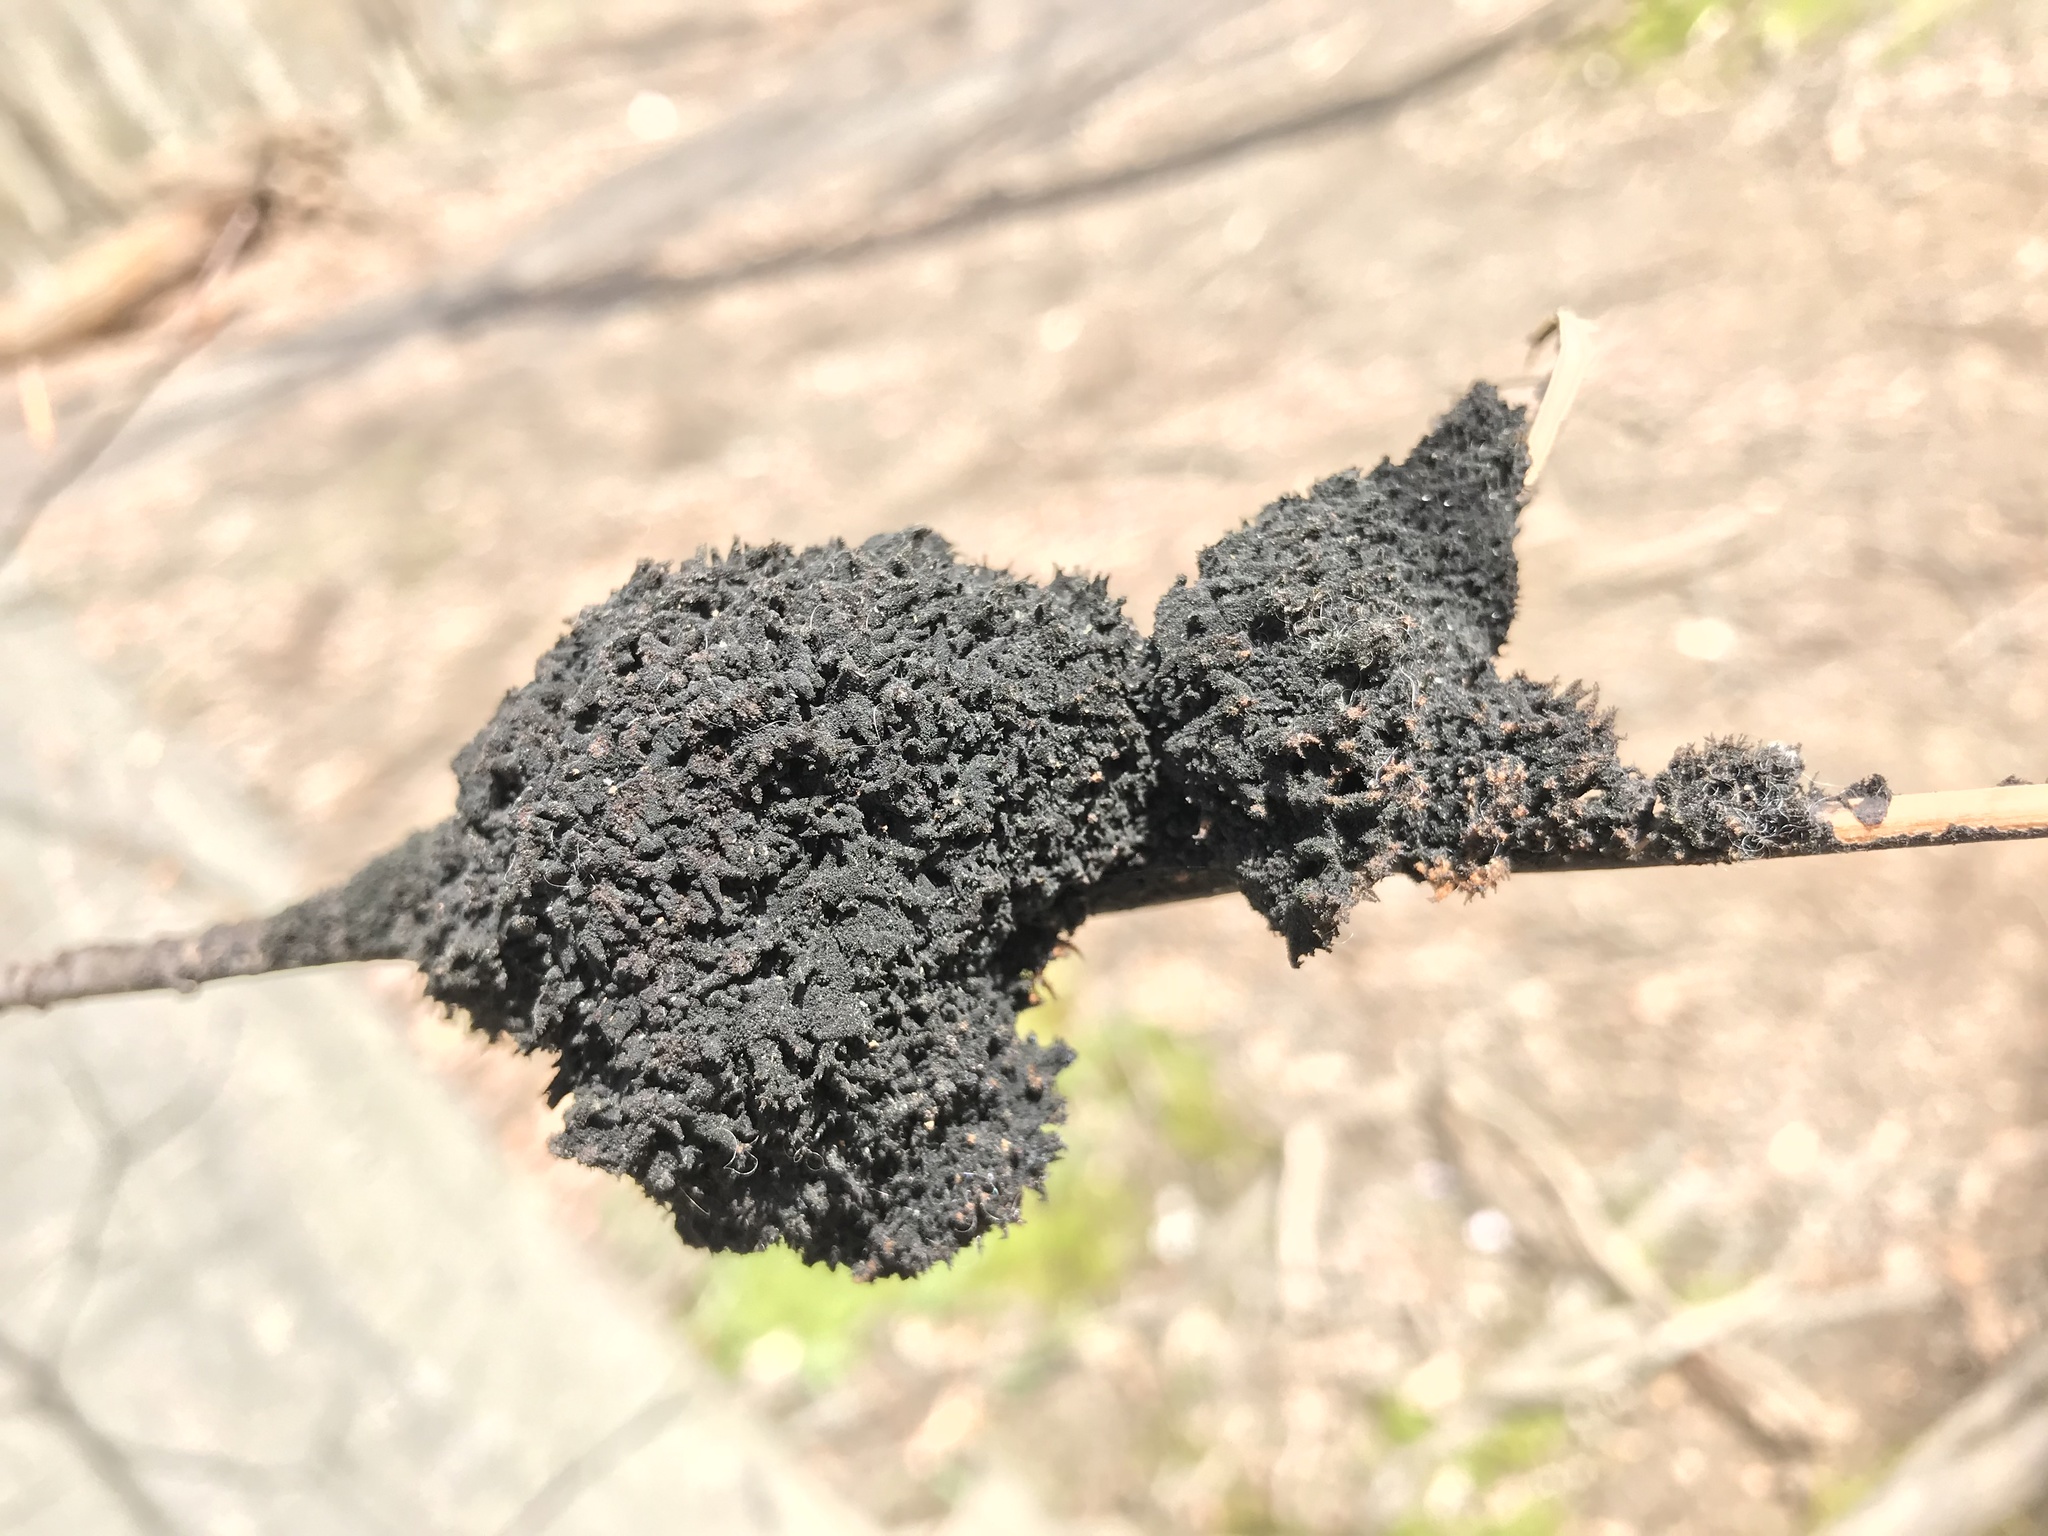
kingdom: Fungi
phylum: Ascomycota
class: Dothideomycetes
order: Capnodiales
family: Capnodiaceae
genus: Scorias
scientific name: Scorias spongiosa
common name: Black sooty mold
